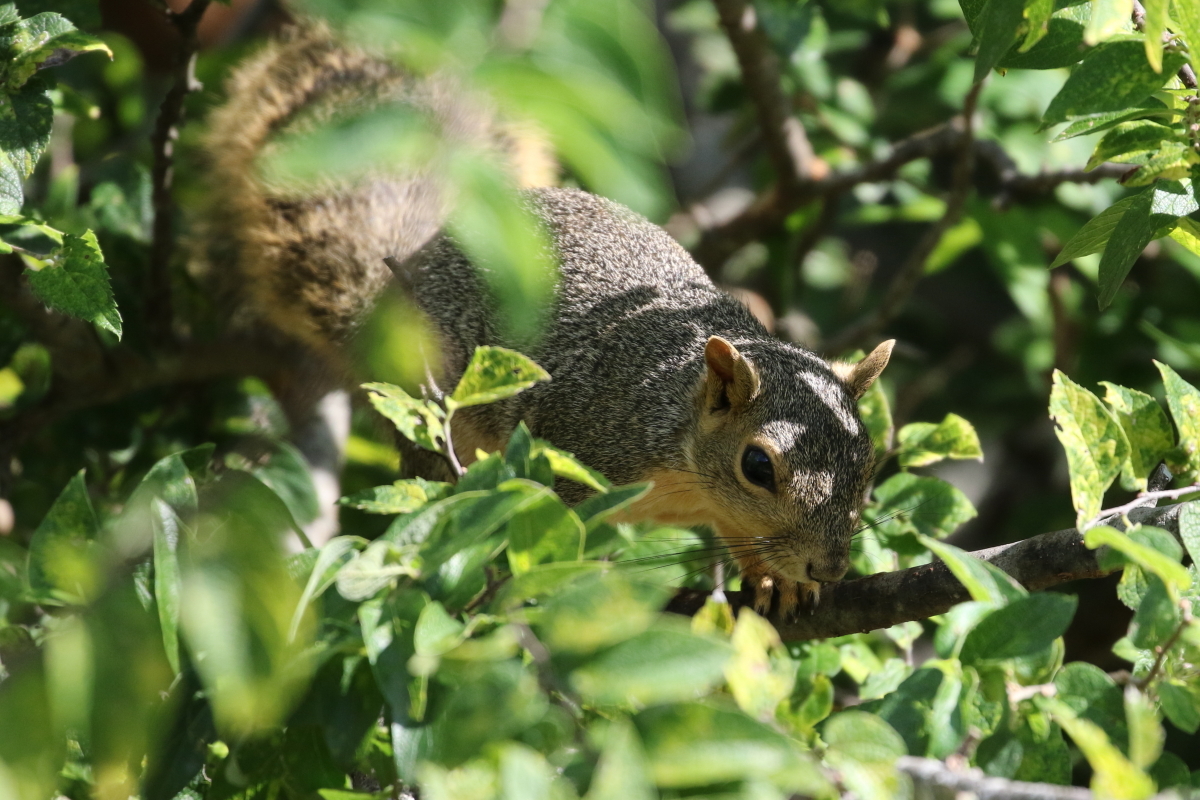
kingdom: Animalia
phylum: Chordata
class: Mammalia
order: Rodentia
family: Sciuridae
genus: Sciurus
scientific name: Sciurus niger
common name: Fox squirrel
